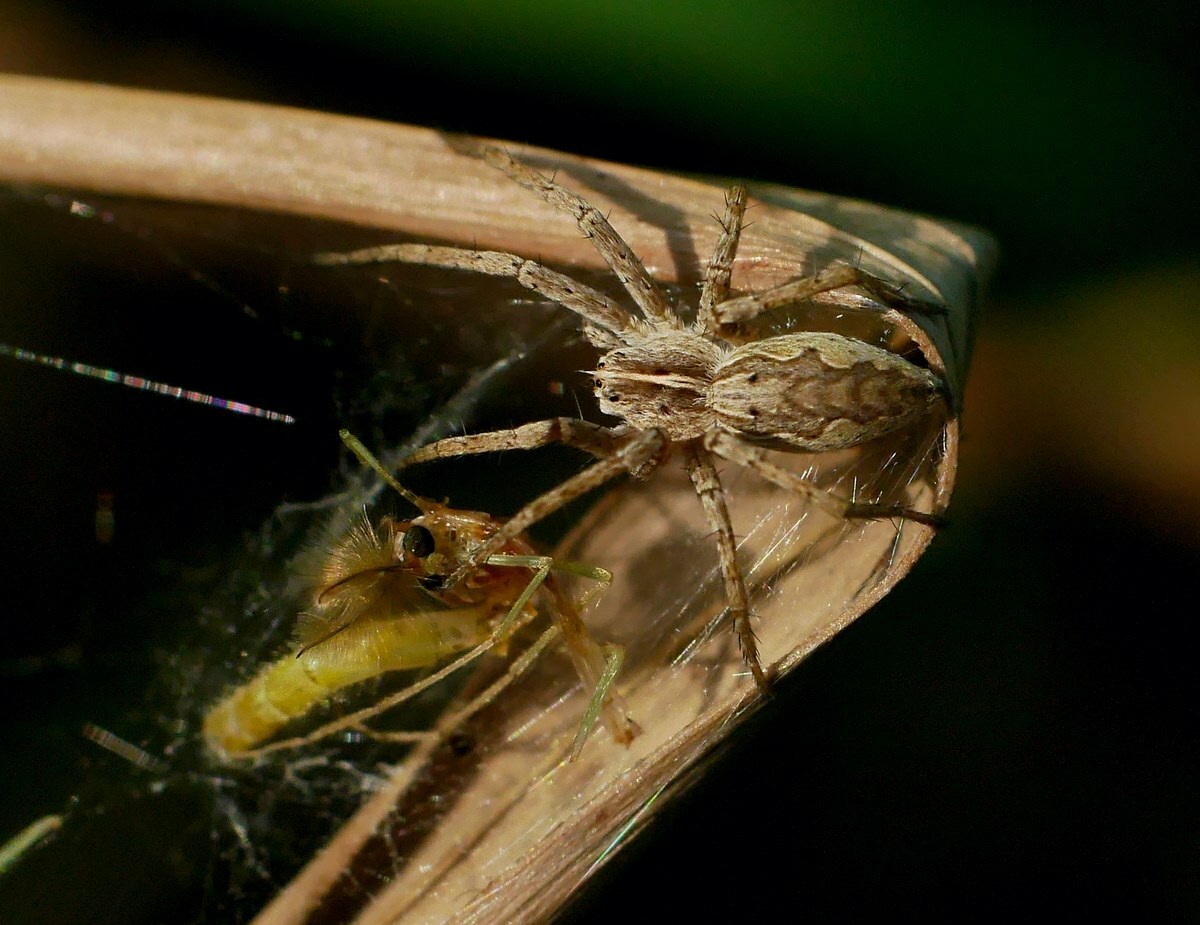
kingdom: Animalia
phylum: Arthropoda
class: Arachnida
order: Araneae
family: Pisauridae
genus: Pisaura
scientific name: Pisaura
